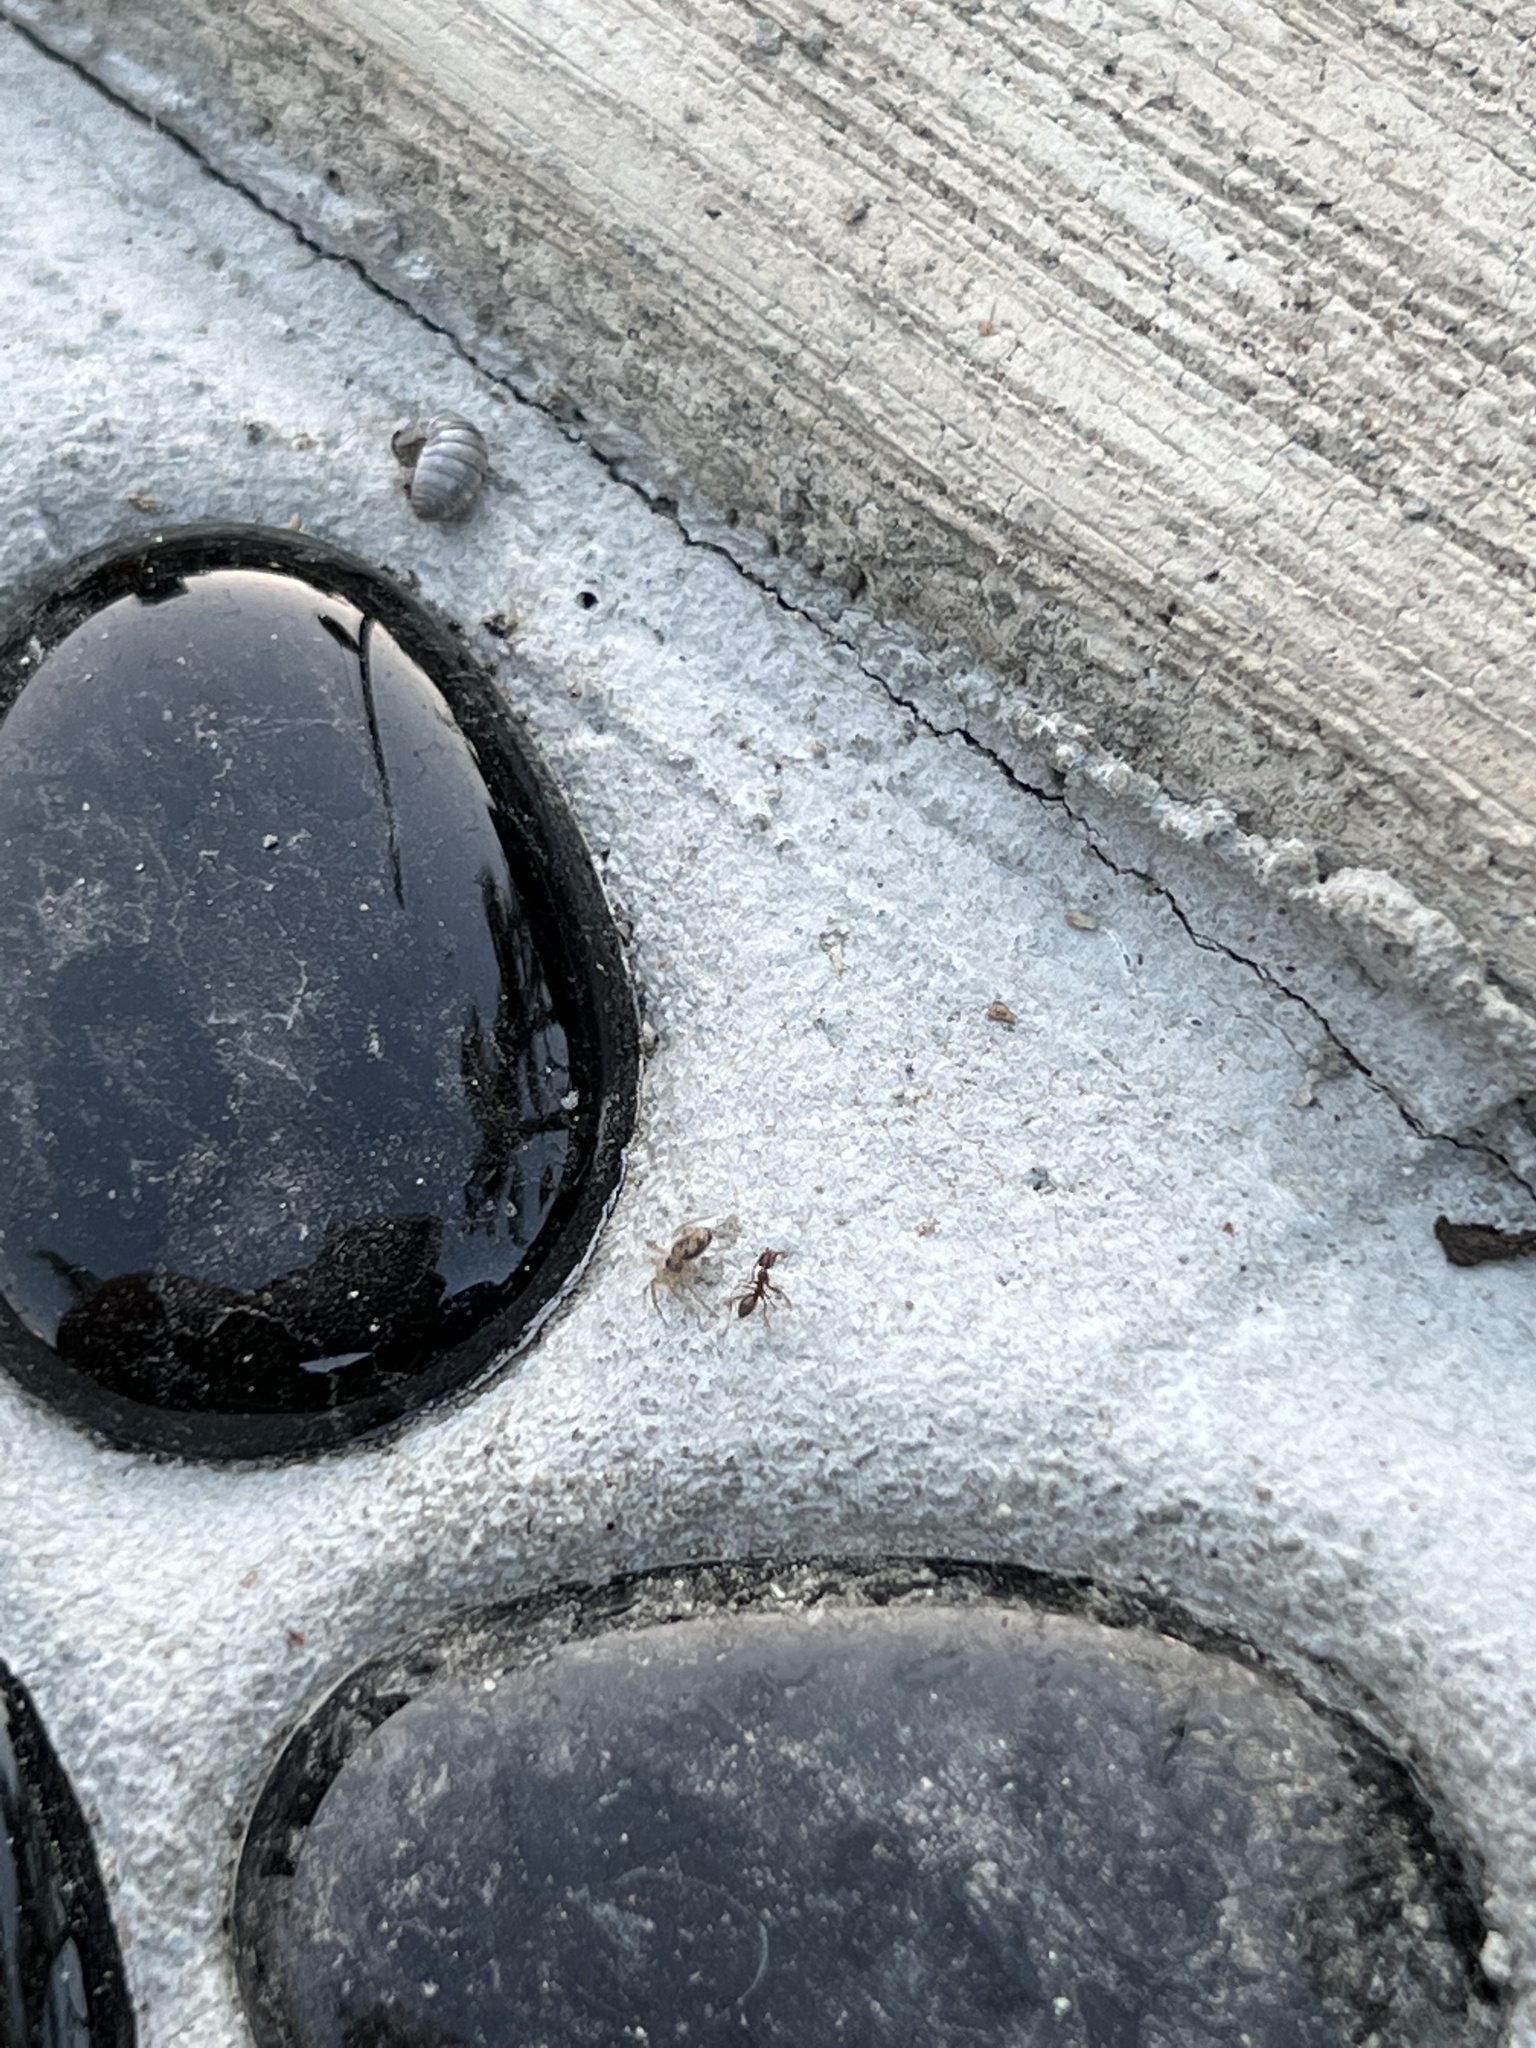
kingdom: Animalia
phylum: Arthropoda
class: Insecta
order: Hymenoptera
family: Formicidae
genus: Linepithema
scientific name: Linepithema humile
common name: Argentine ant
